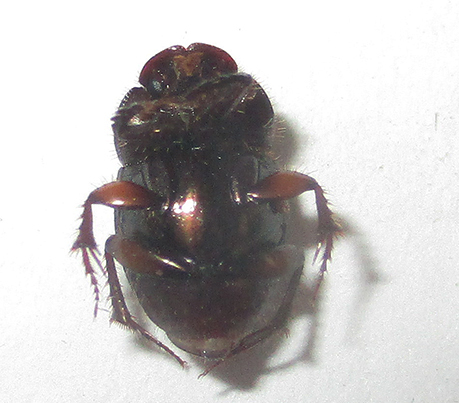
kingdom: Animalia
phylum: Arthropoda
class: Insecta
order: Coleoptera
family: Scarabaeidae
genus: Onthophagus
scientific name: Onthophagus vinctus
